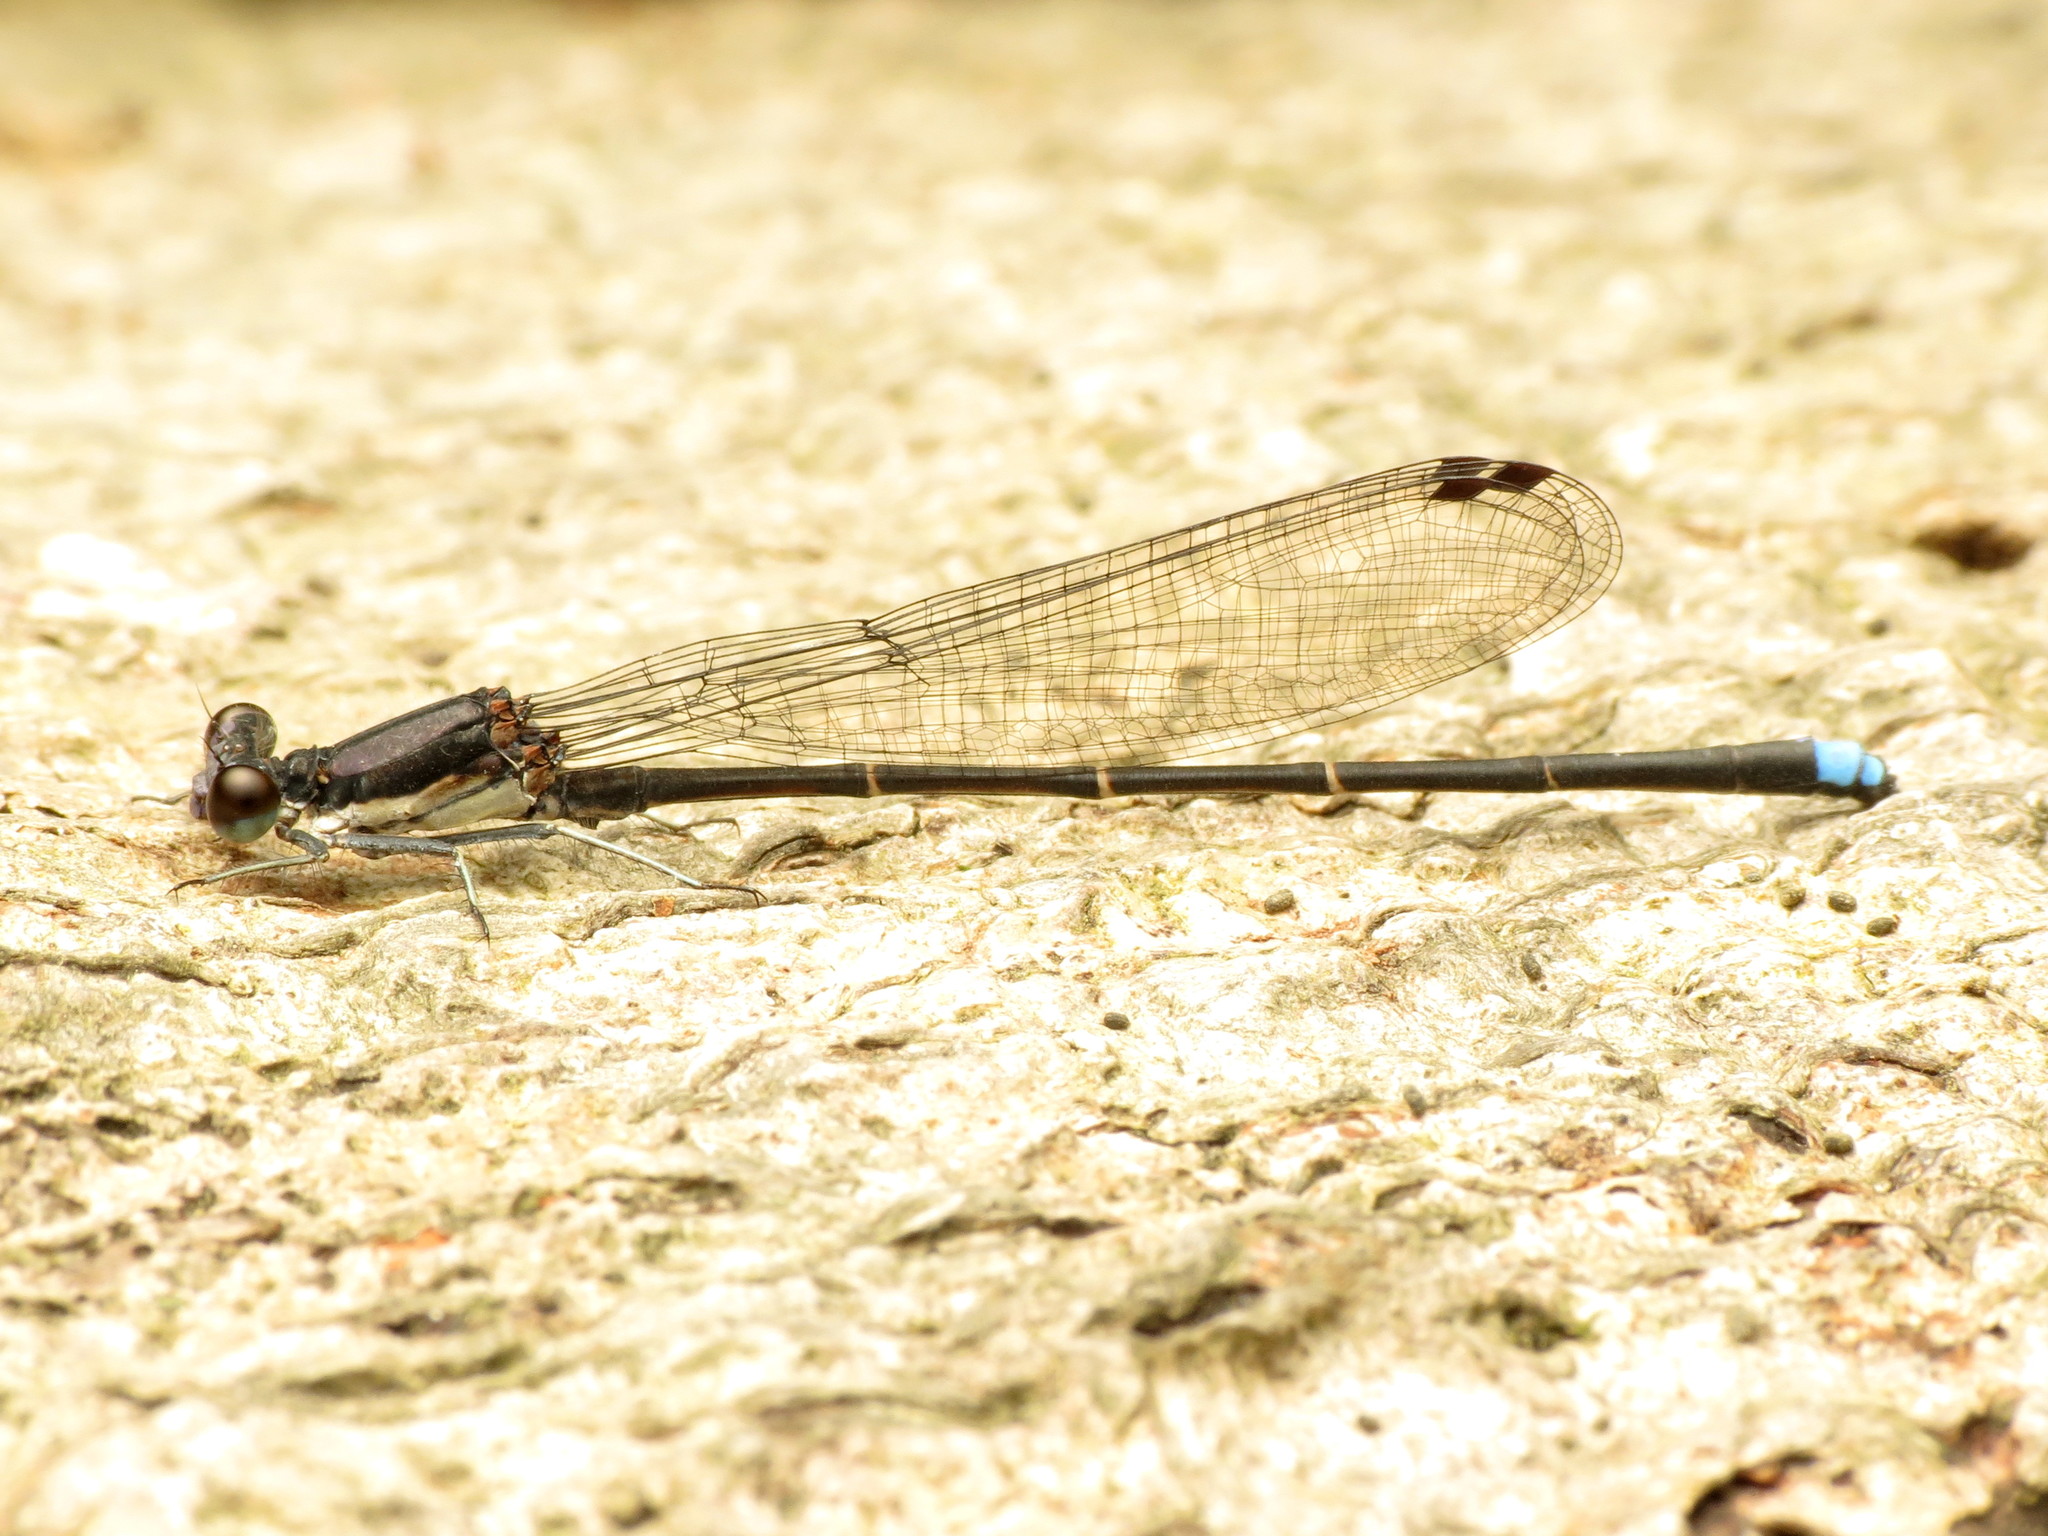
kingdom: Animalia
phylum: Arthropoda
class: Insecta
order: Odonata
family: Coenagrionidae
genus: Argia
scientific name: Argia tibialis
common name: Blue-tipped dancer
